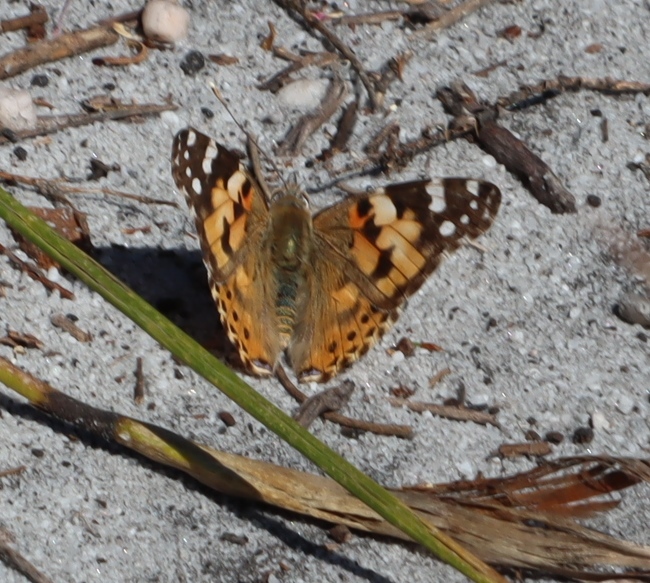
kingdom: Animalia
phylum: Arthropoda
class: Insecta
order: Lepidoptera
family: Nymphalidae
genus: Vanessa
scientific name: Vanessa cardui
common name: Painted lady
